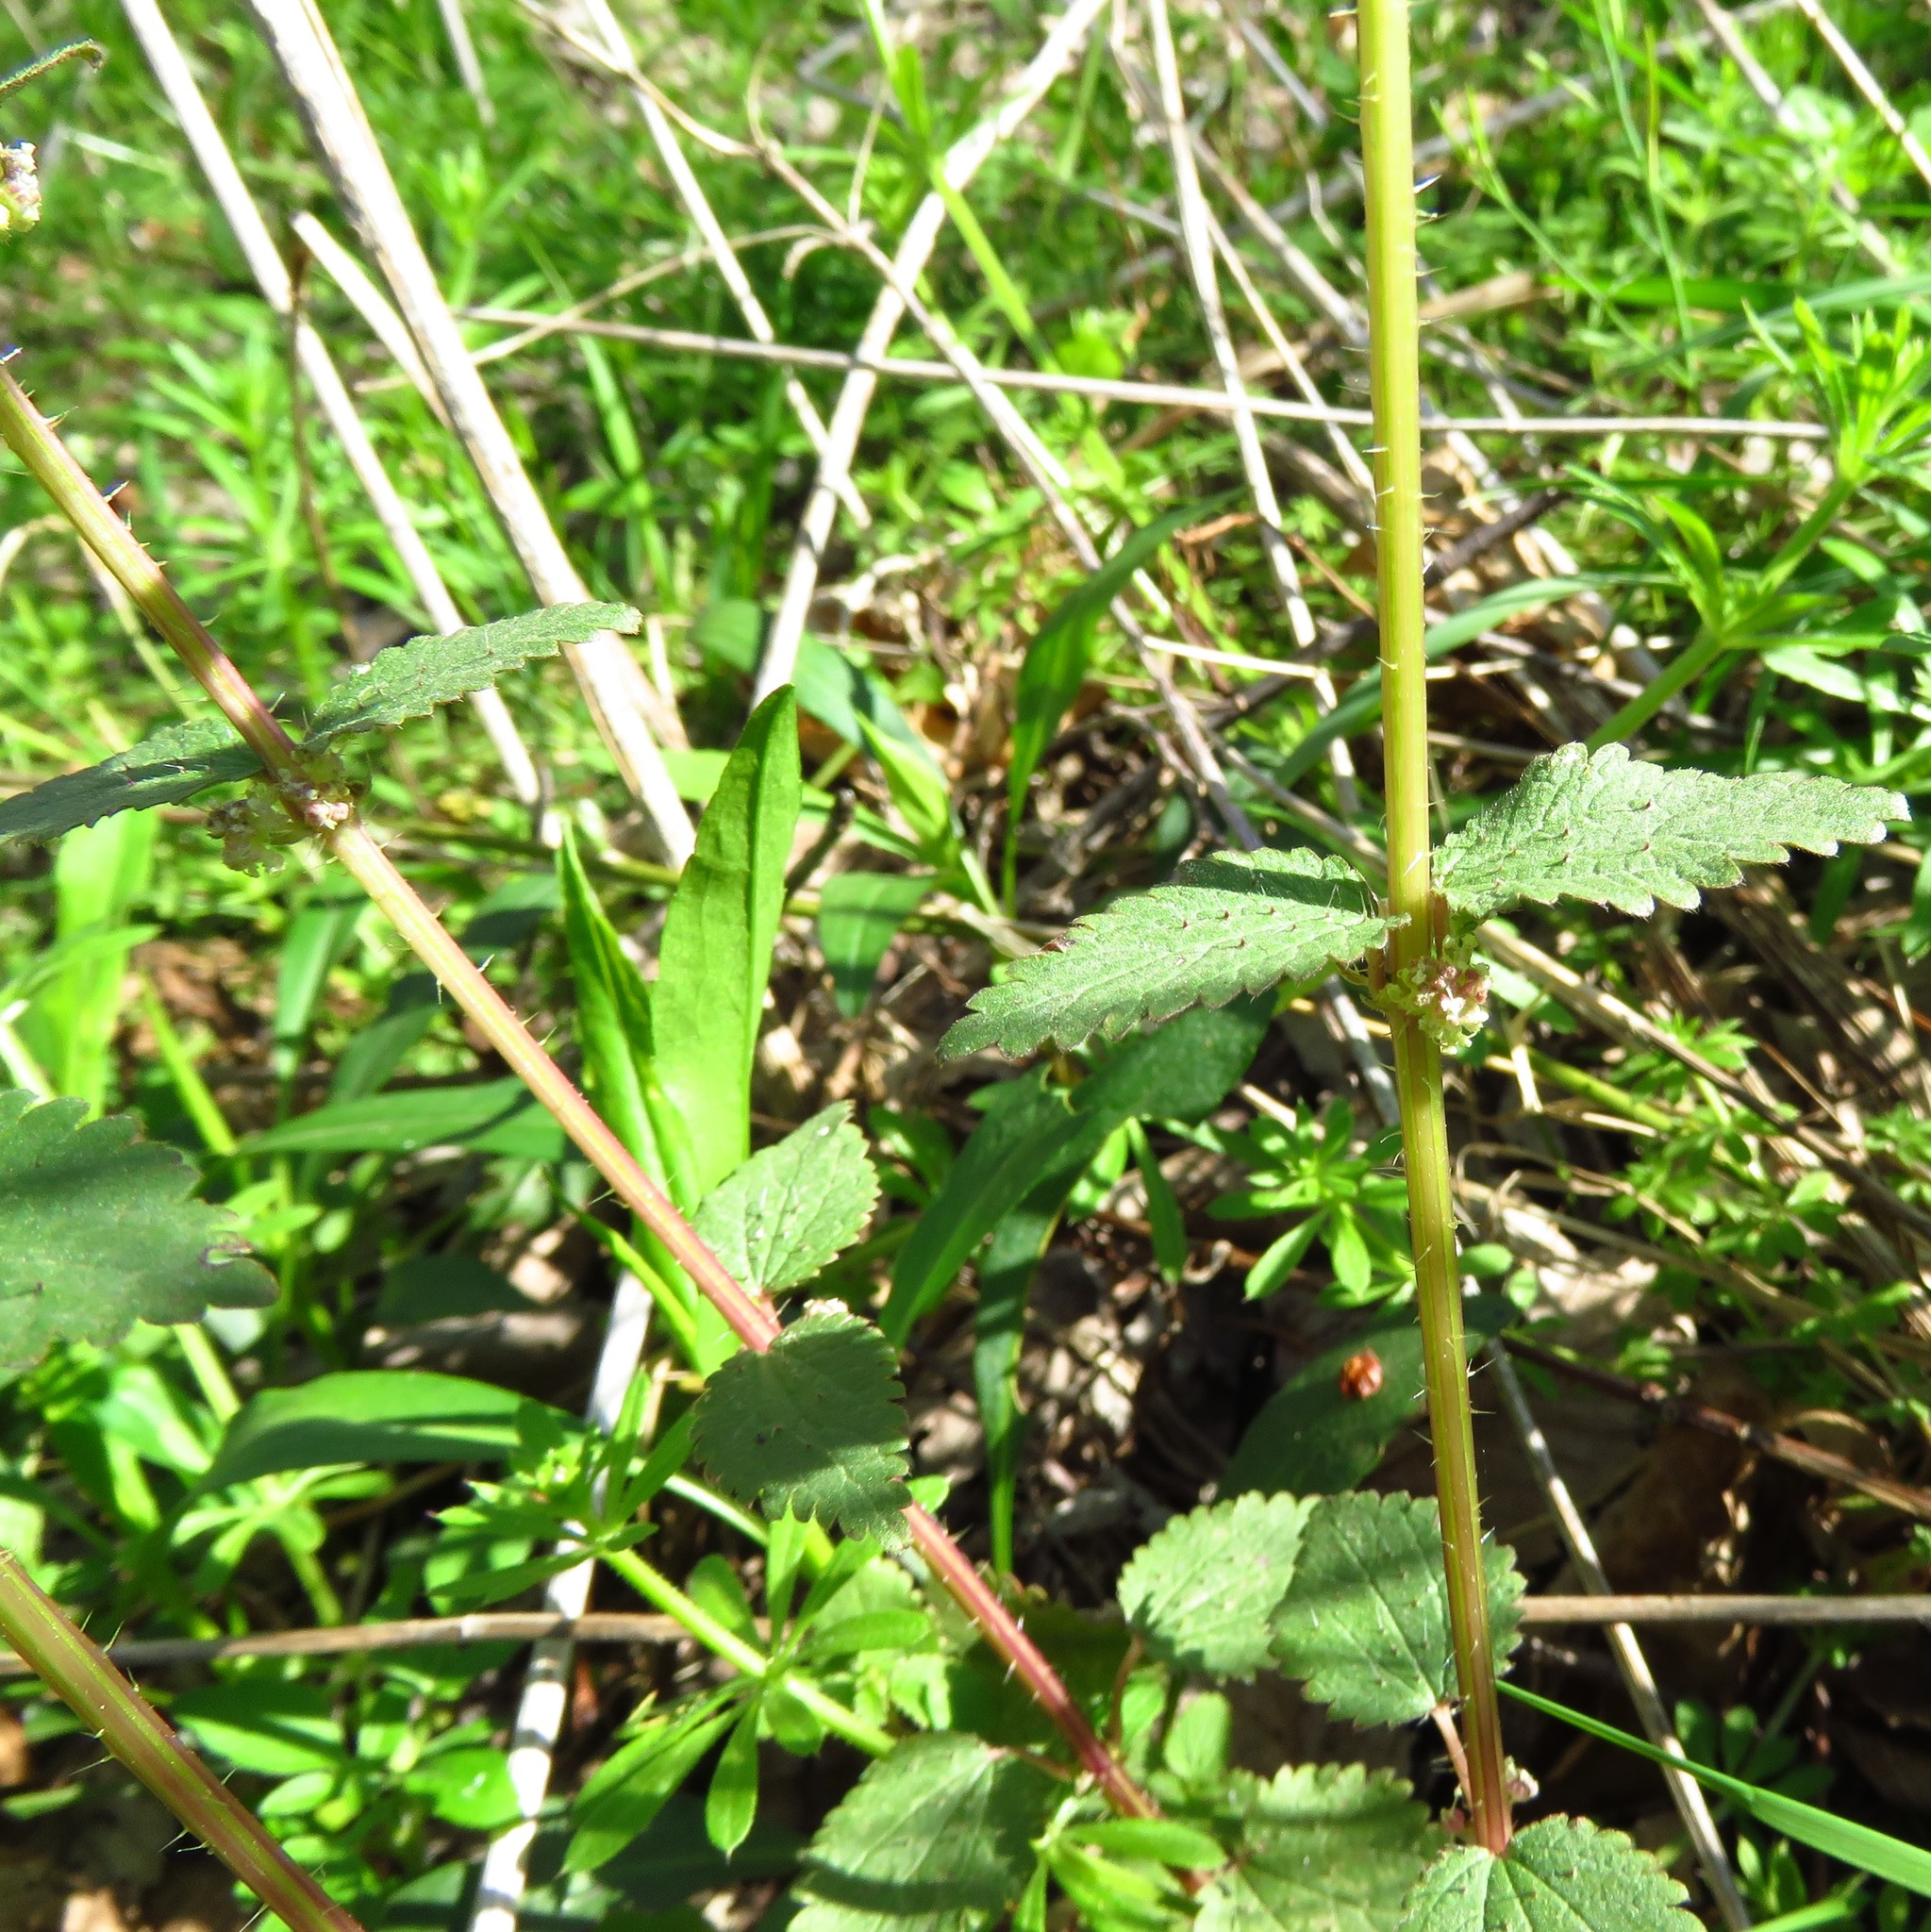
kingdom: Plantae
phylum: Tracheophyta
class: Magnoliopsida
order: Rosales
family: Urticaceae
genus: Urtica
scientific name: Urtica chamaedryoides
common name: Heart-leaf nettle
